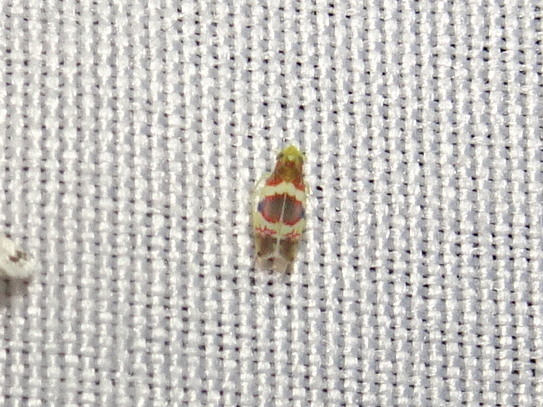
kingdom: Animalia
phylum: Arthropoda
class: Insecta
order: Hemiptera
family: Cicadellidae
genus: Erythroneura
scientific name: Erythroneura vitis
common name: Grapevine leafhopper
